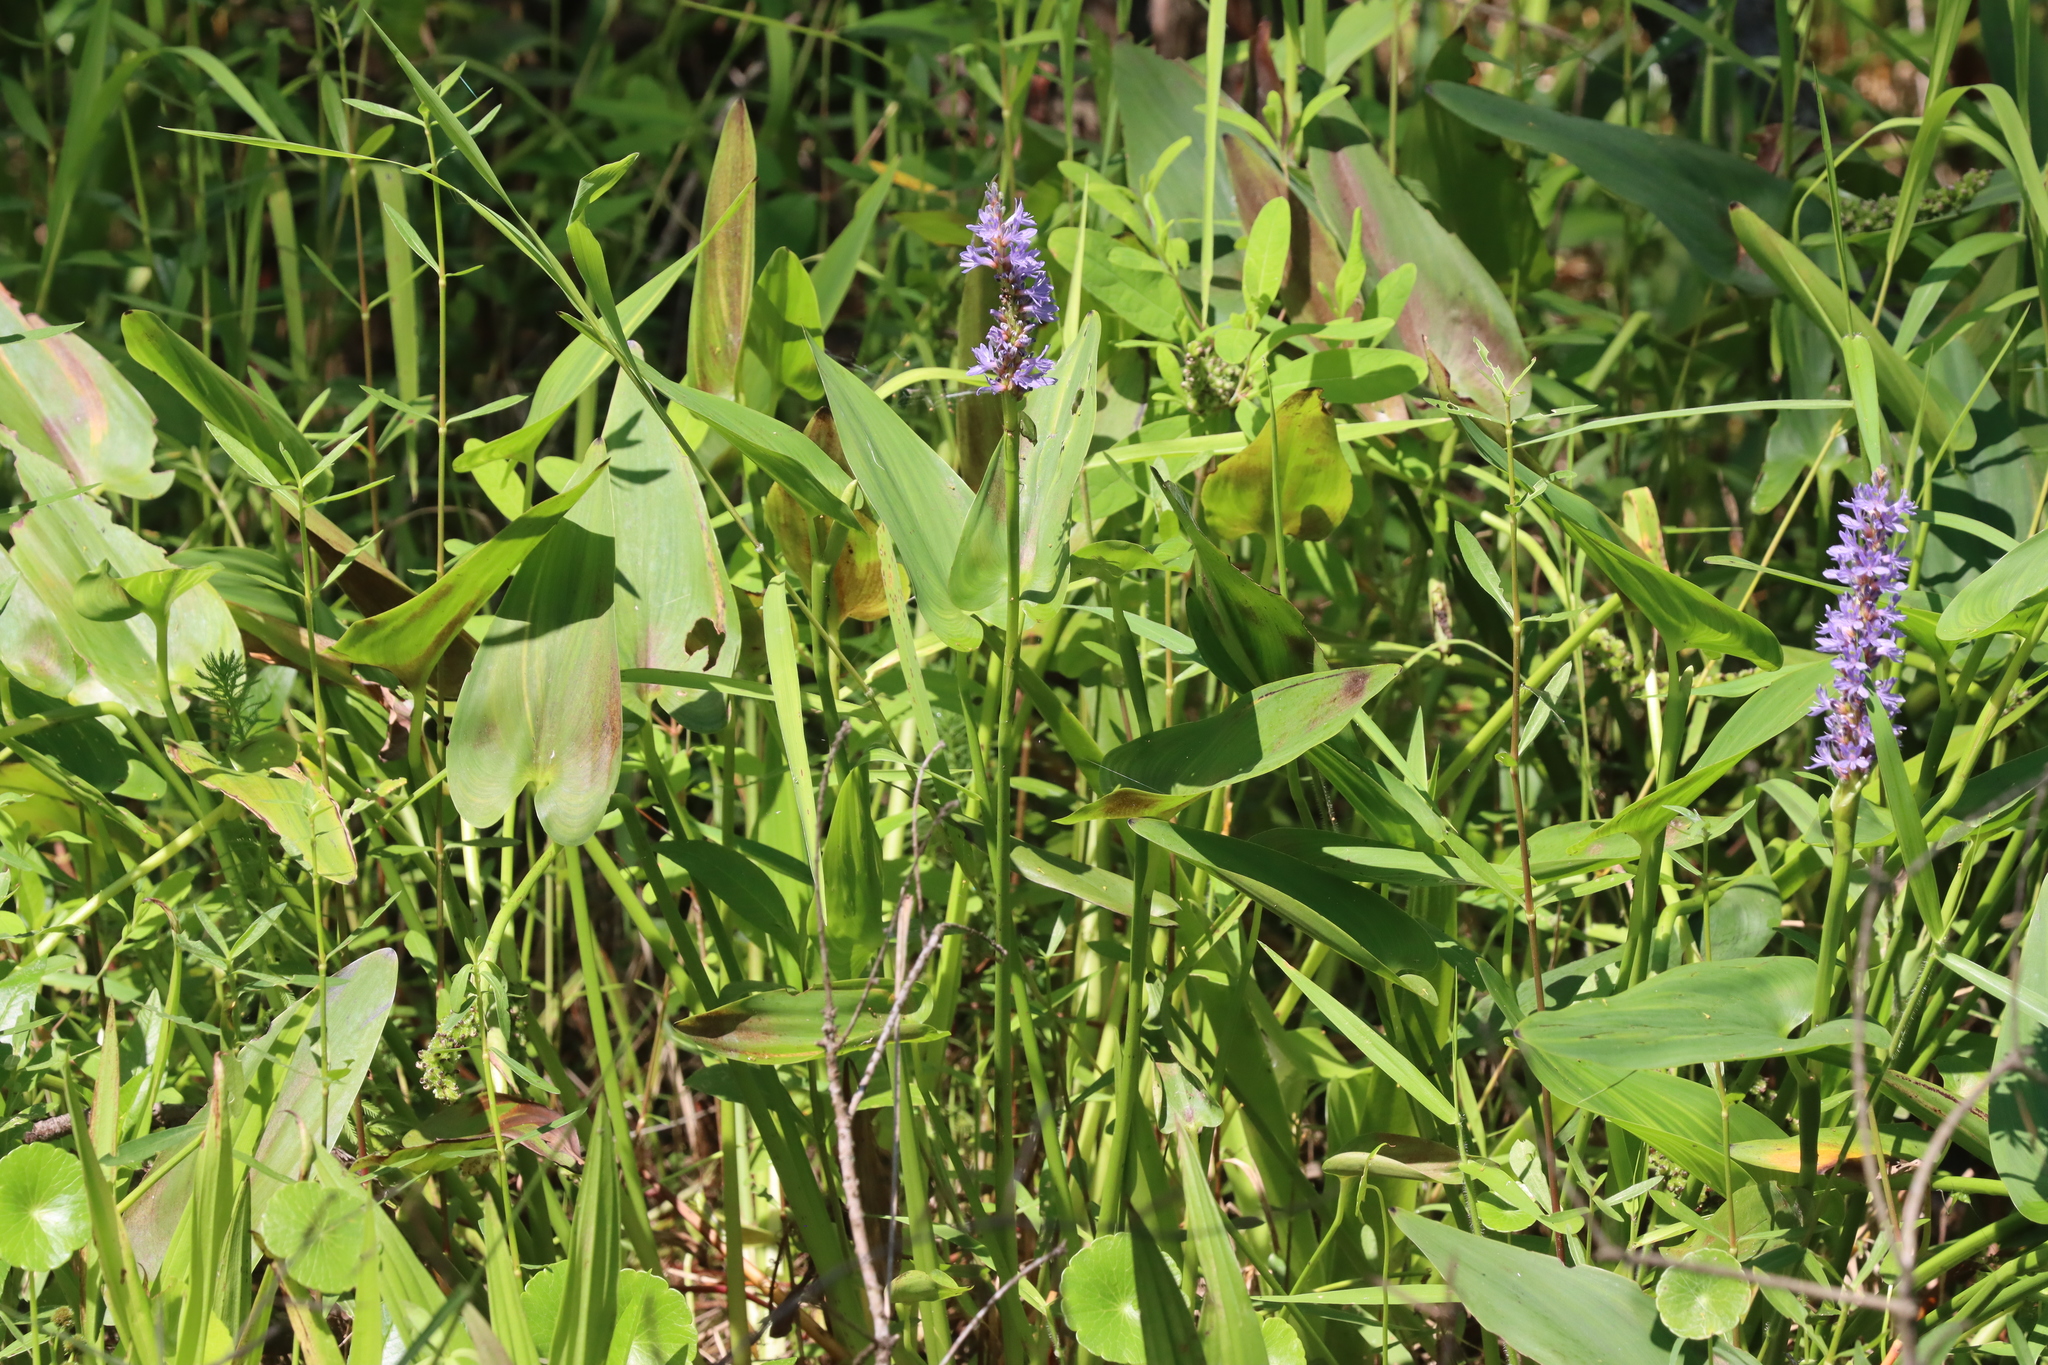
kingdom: Plantae
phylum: Tracheophyta
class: Liliopsida
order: Commelinales
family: Pontederiaceae
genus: Pontederia
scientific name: Pontederia cordata
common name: Pickerelweed
